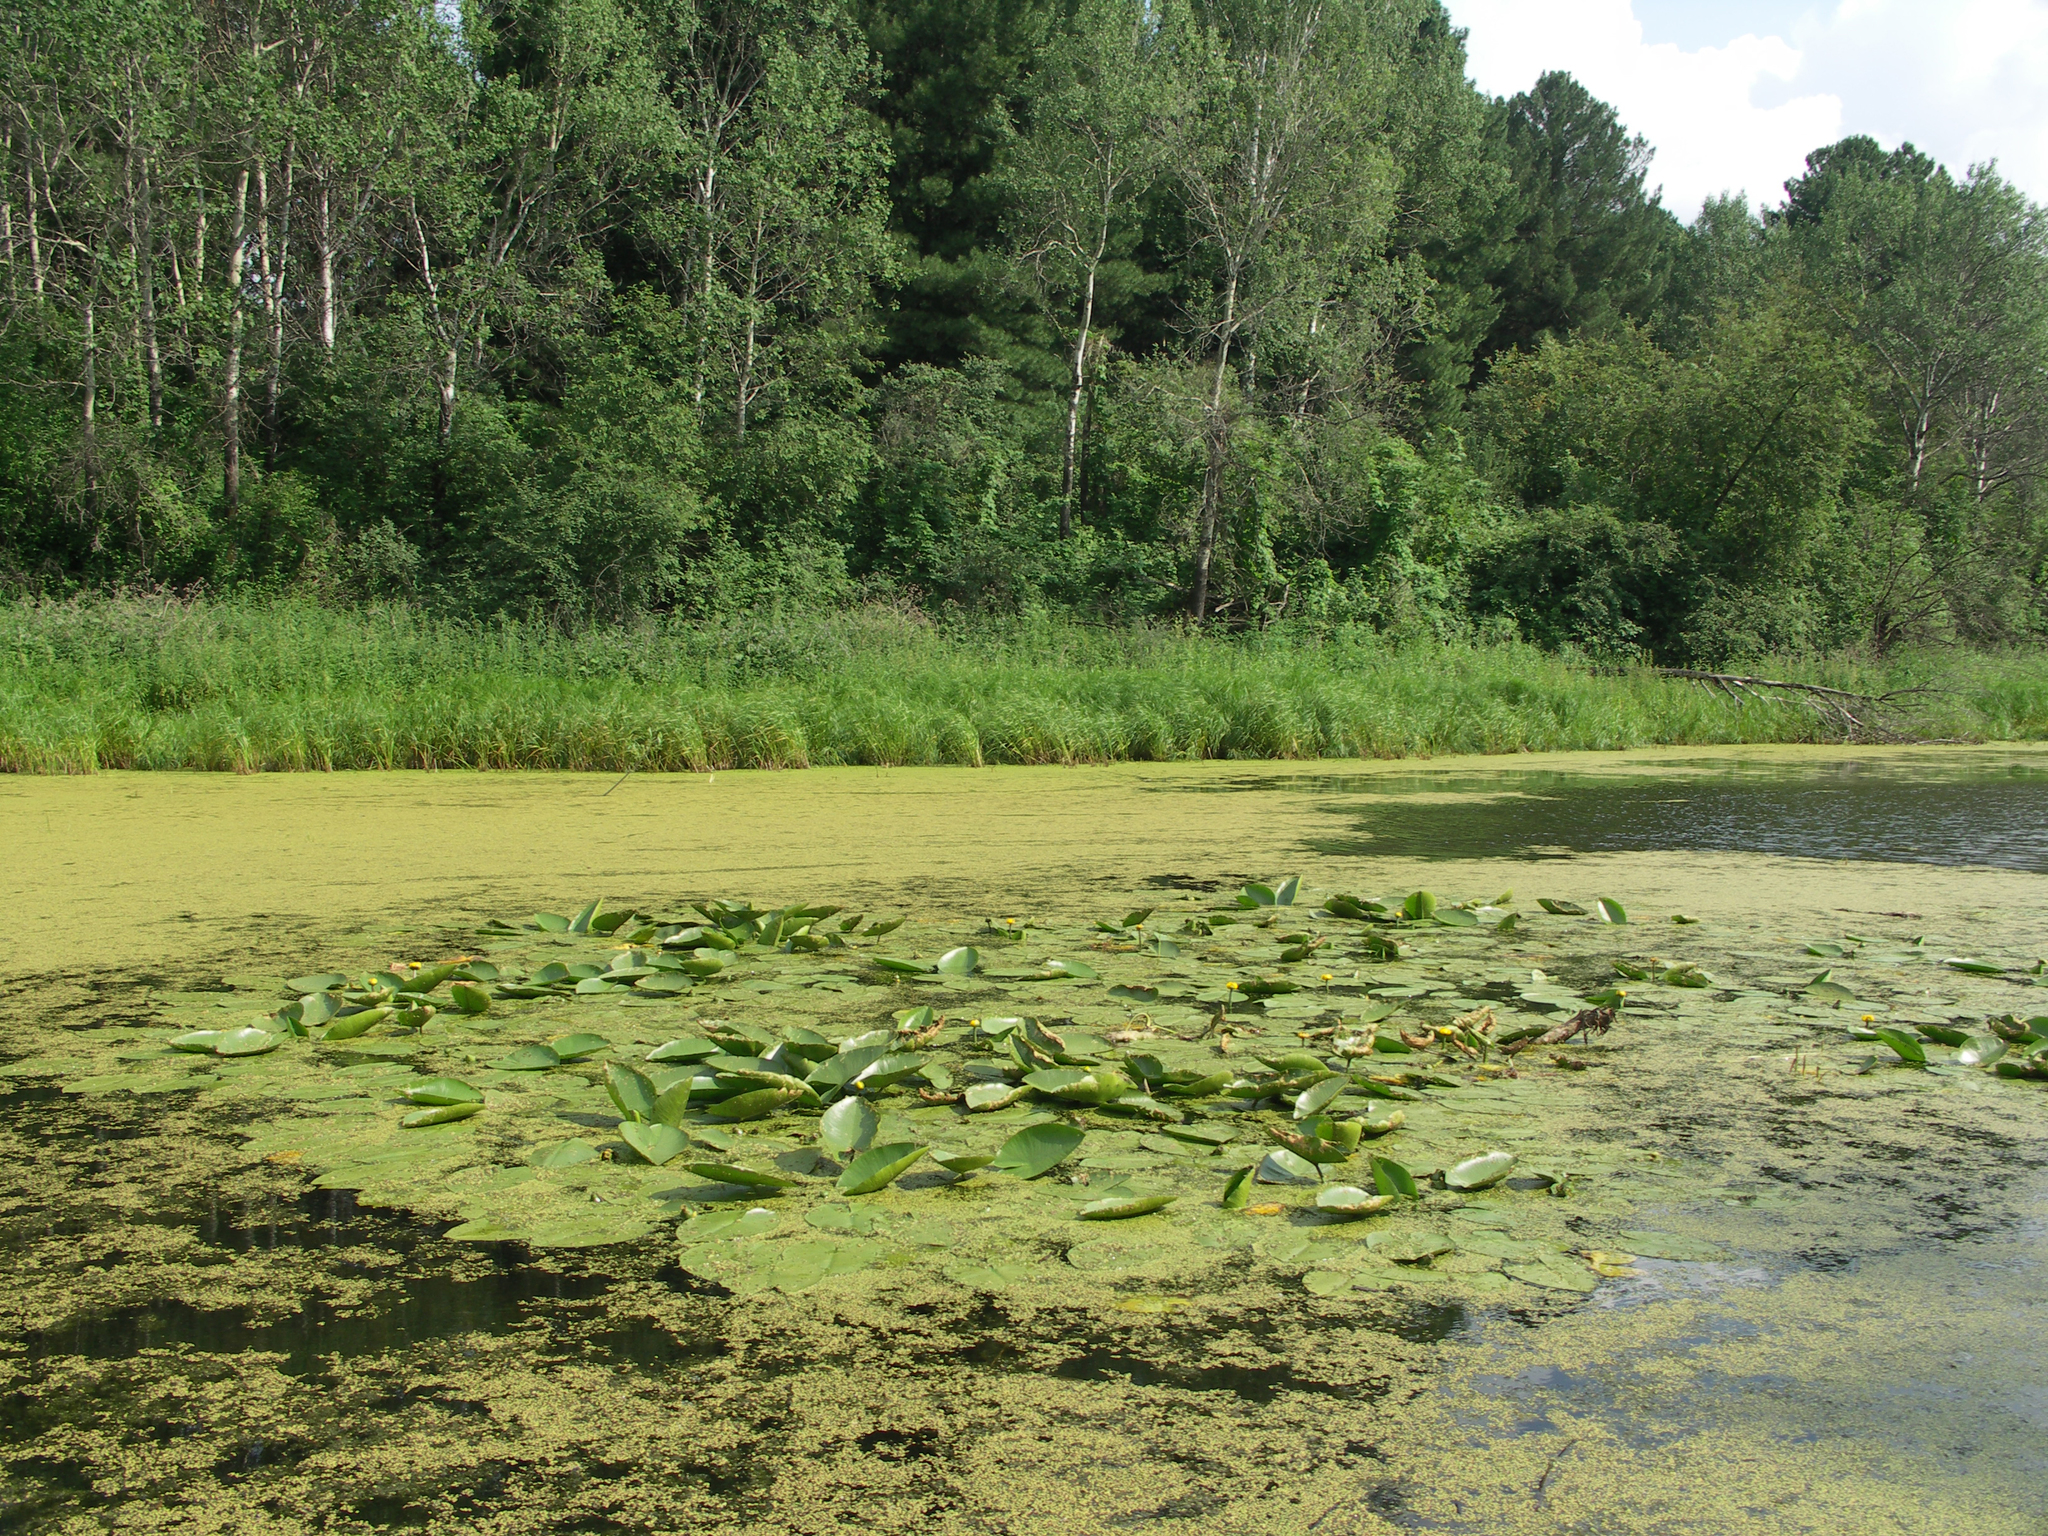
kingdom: Plantae
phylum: Tracheophyta
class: Magnoliopsida
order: Nymphaeales
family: Nymphaeaceae
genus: Nuphar
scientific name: Nuphar lutea
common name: Yellow water-lily
